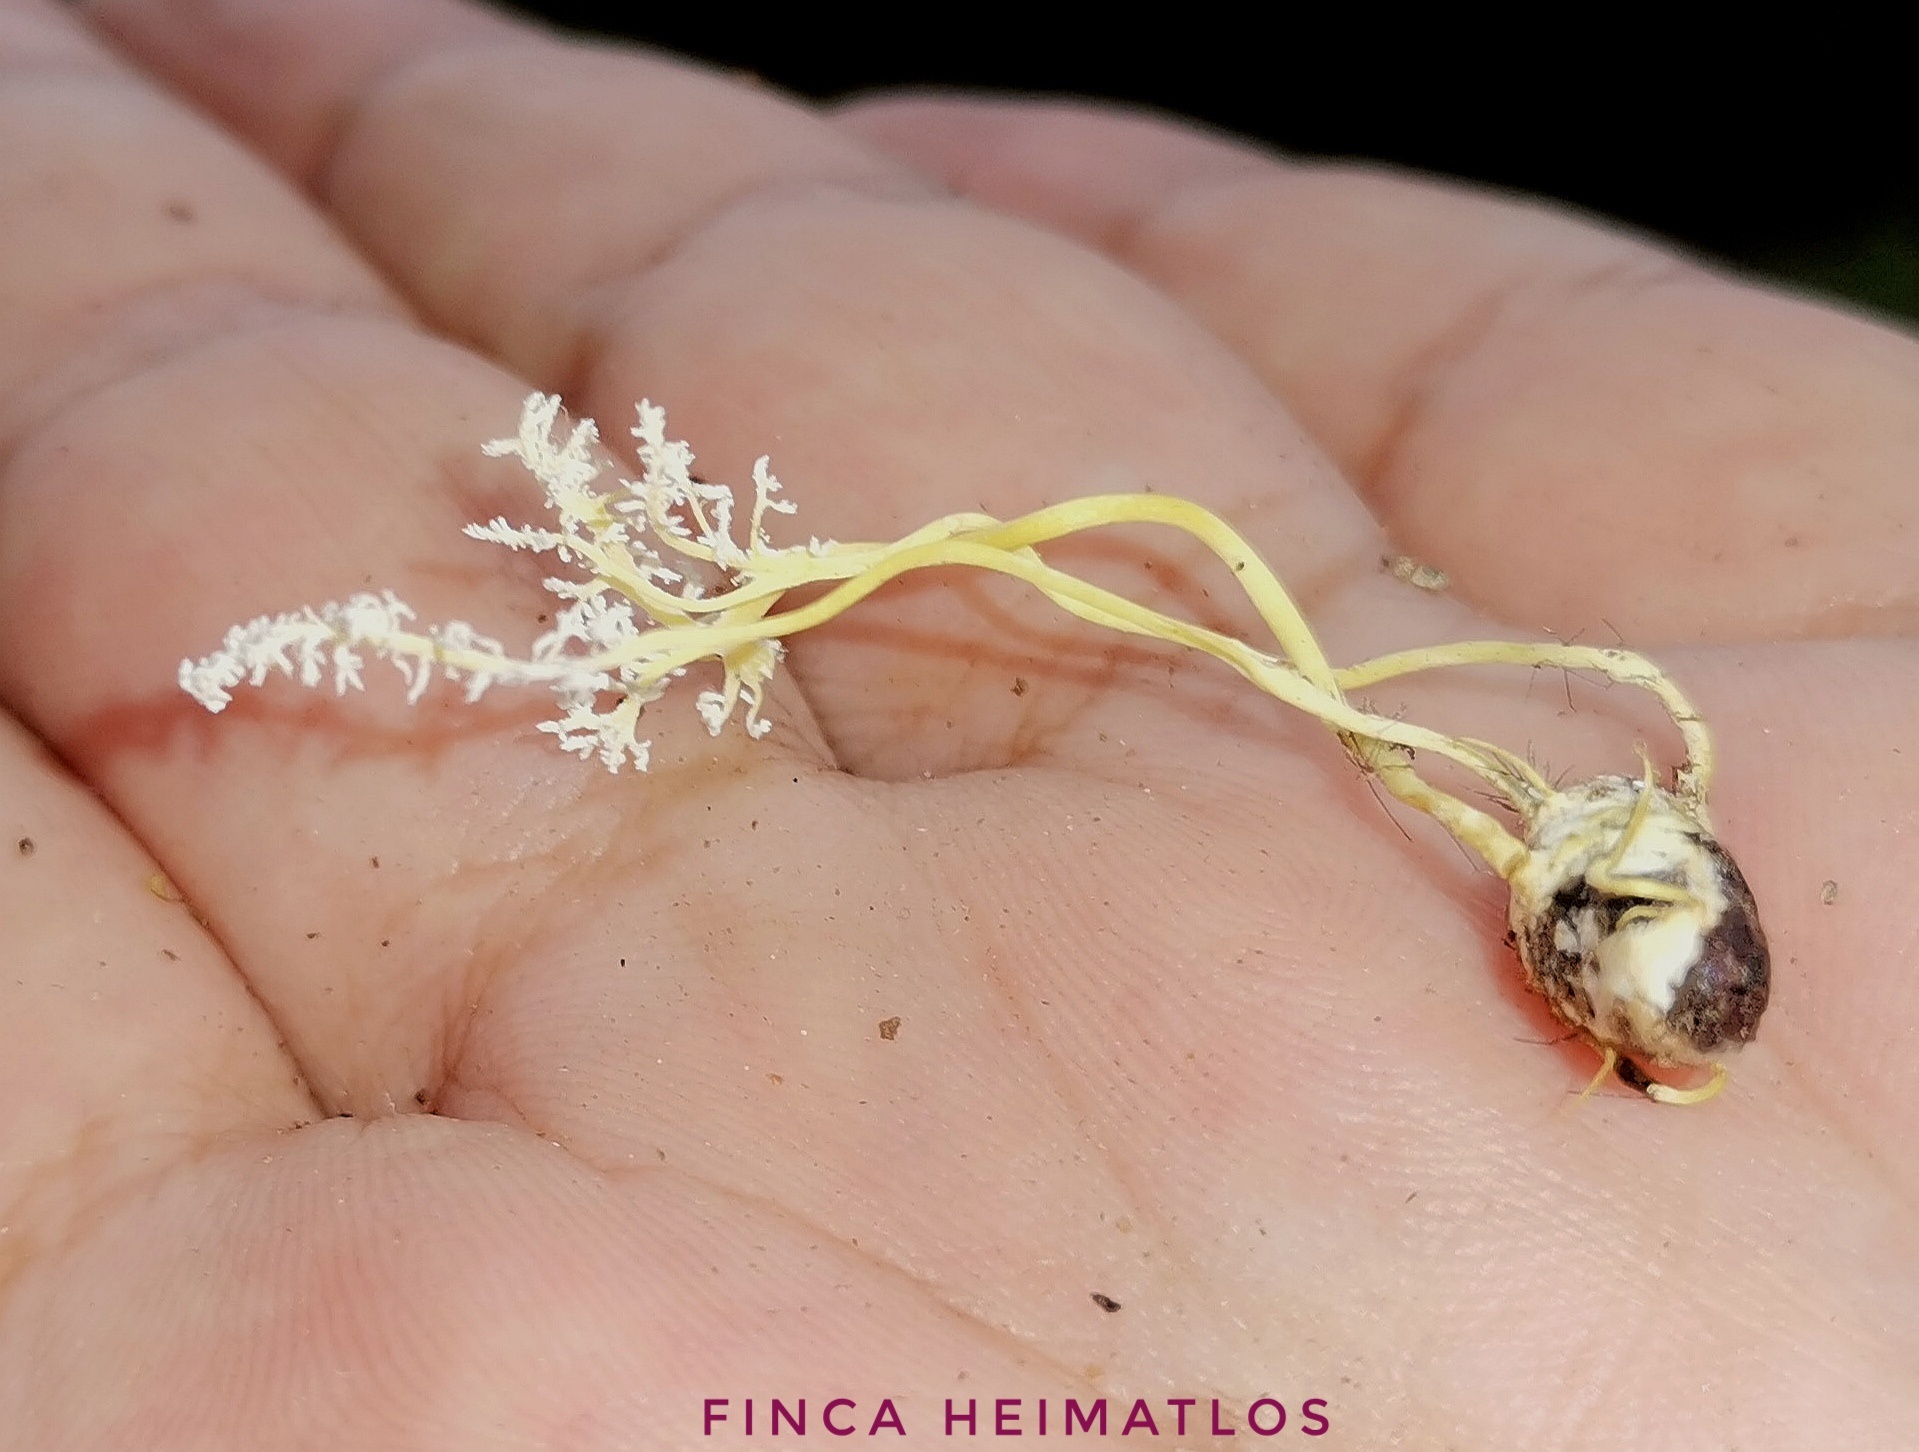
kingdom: Fungi
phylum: Ascomycota
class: Sordariomycetes
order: Hypocreales
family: Cordycipitaceae
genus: Cordyceps
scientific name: Cordyceps tenuipes
